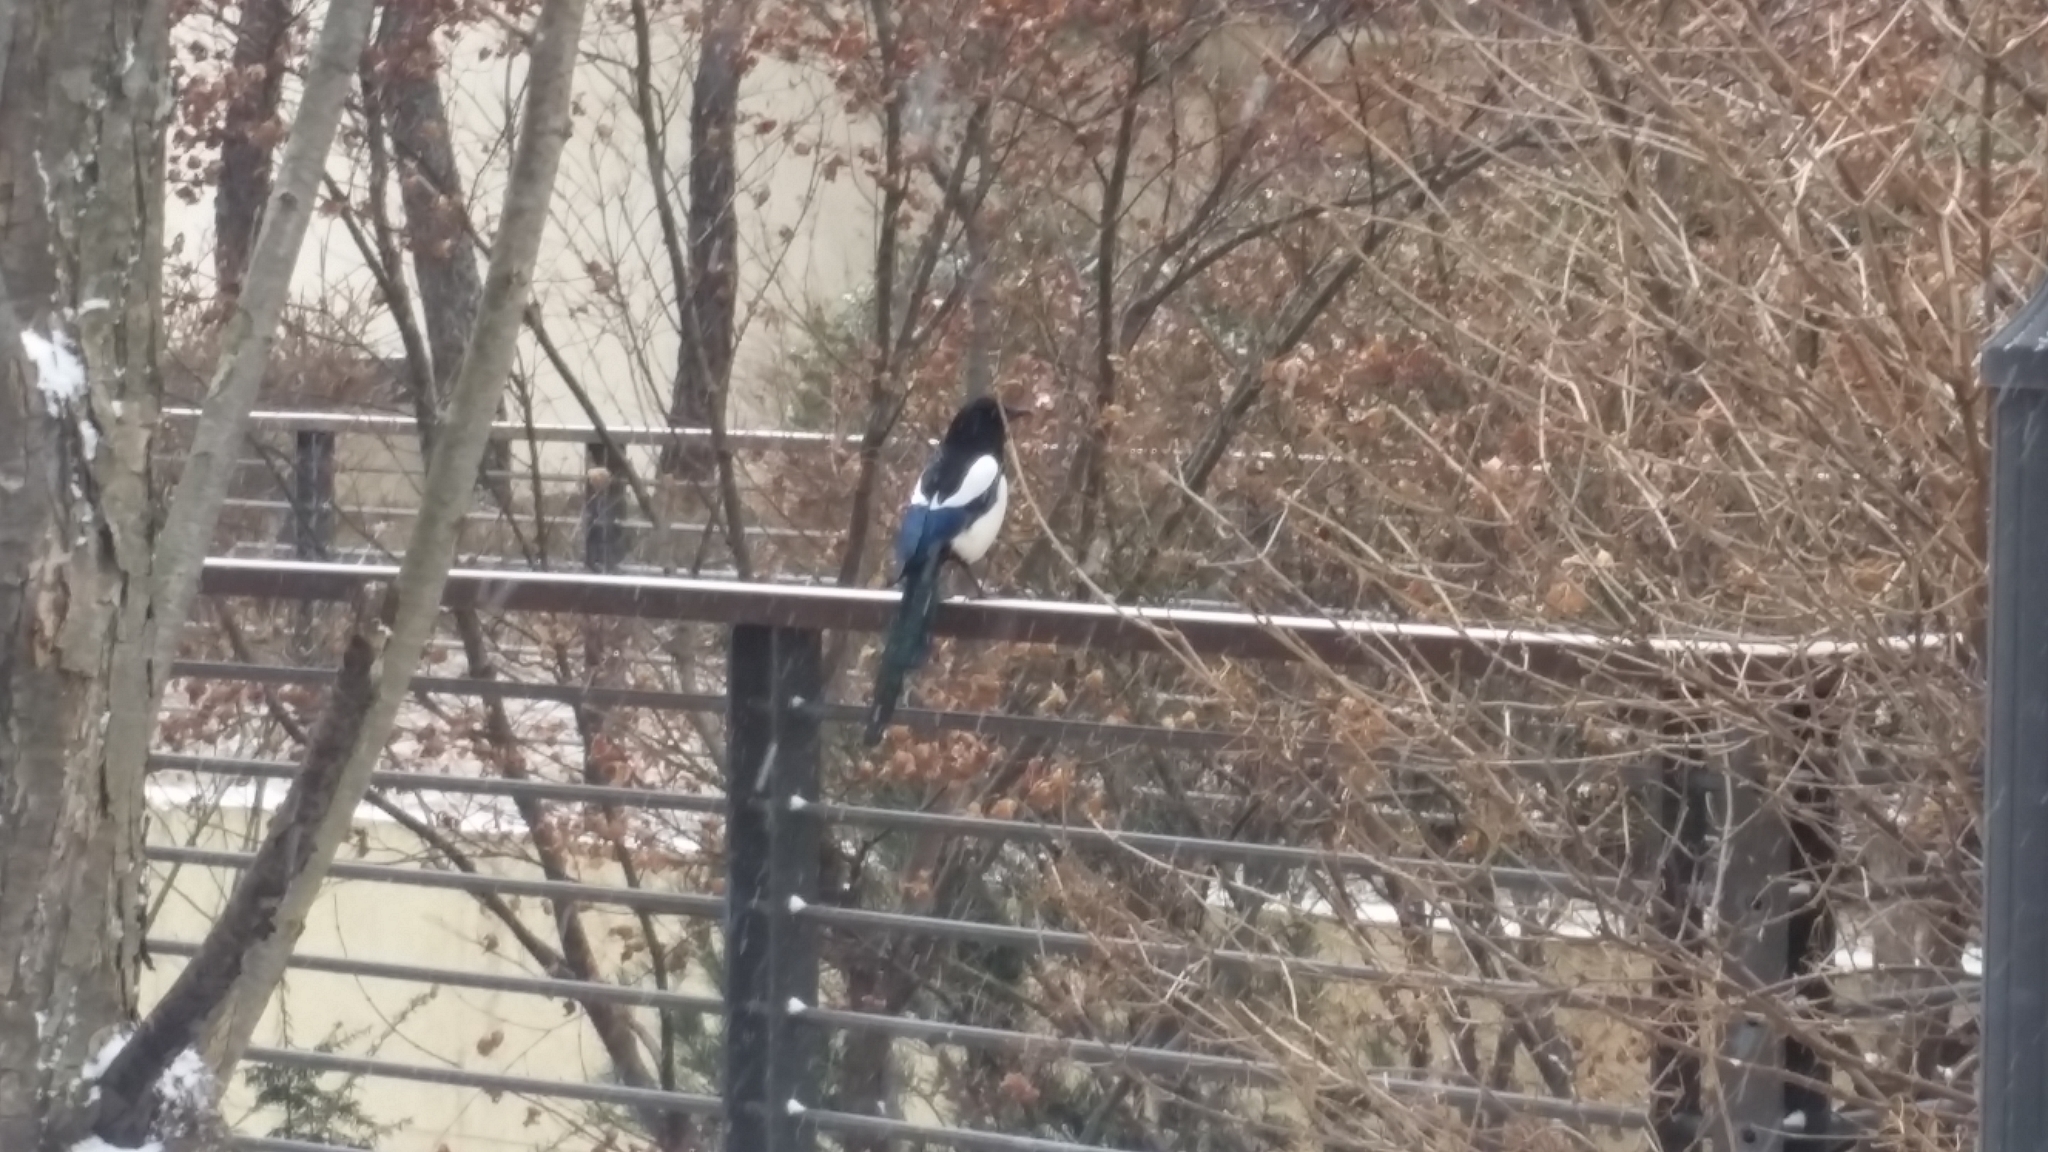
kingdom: Animalia
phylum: Chordata
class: Aves
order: Passeriformes
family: Corvidae
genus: Pica
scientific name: Pica serica
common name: Oriental magpie
